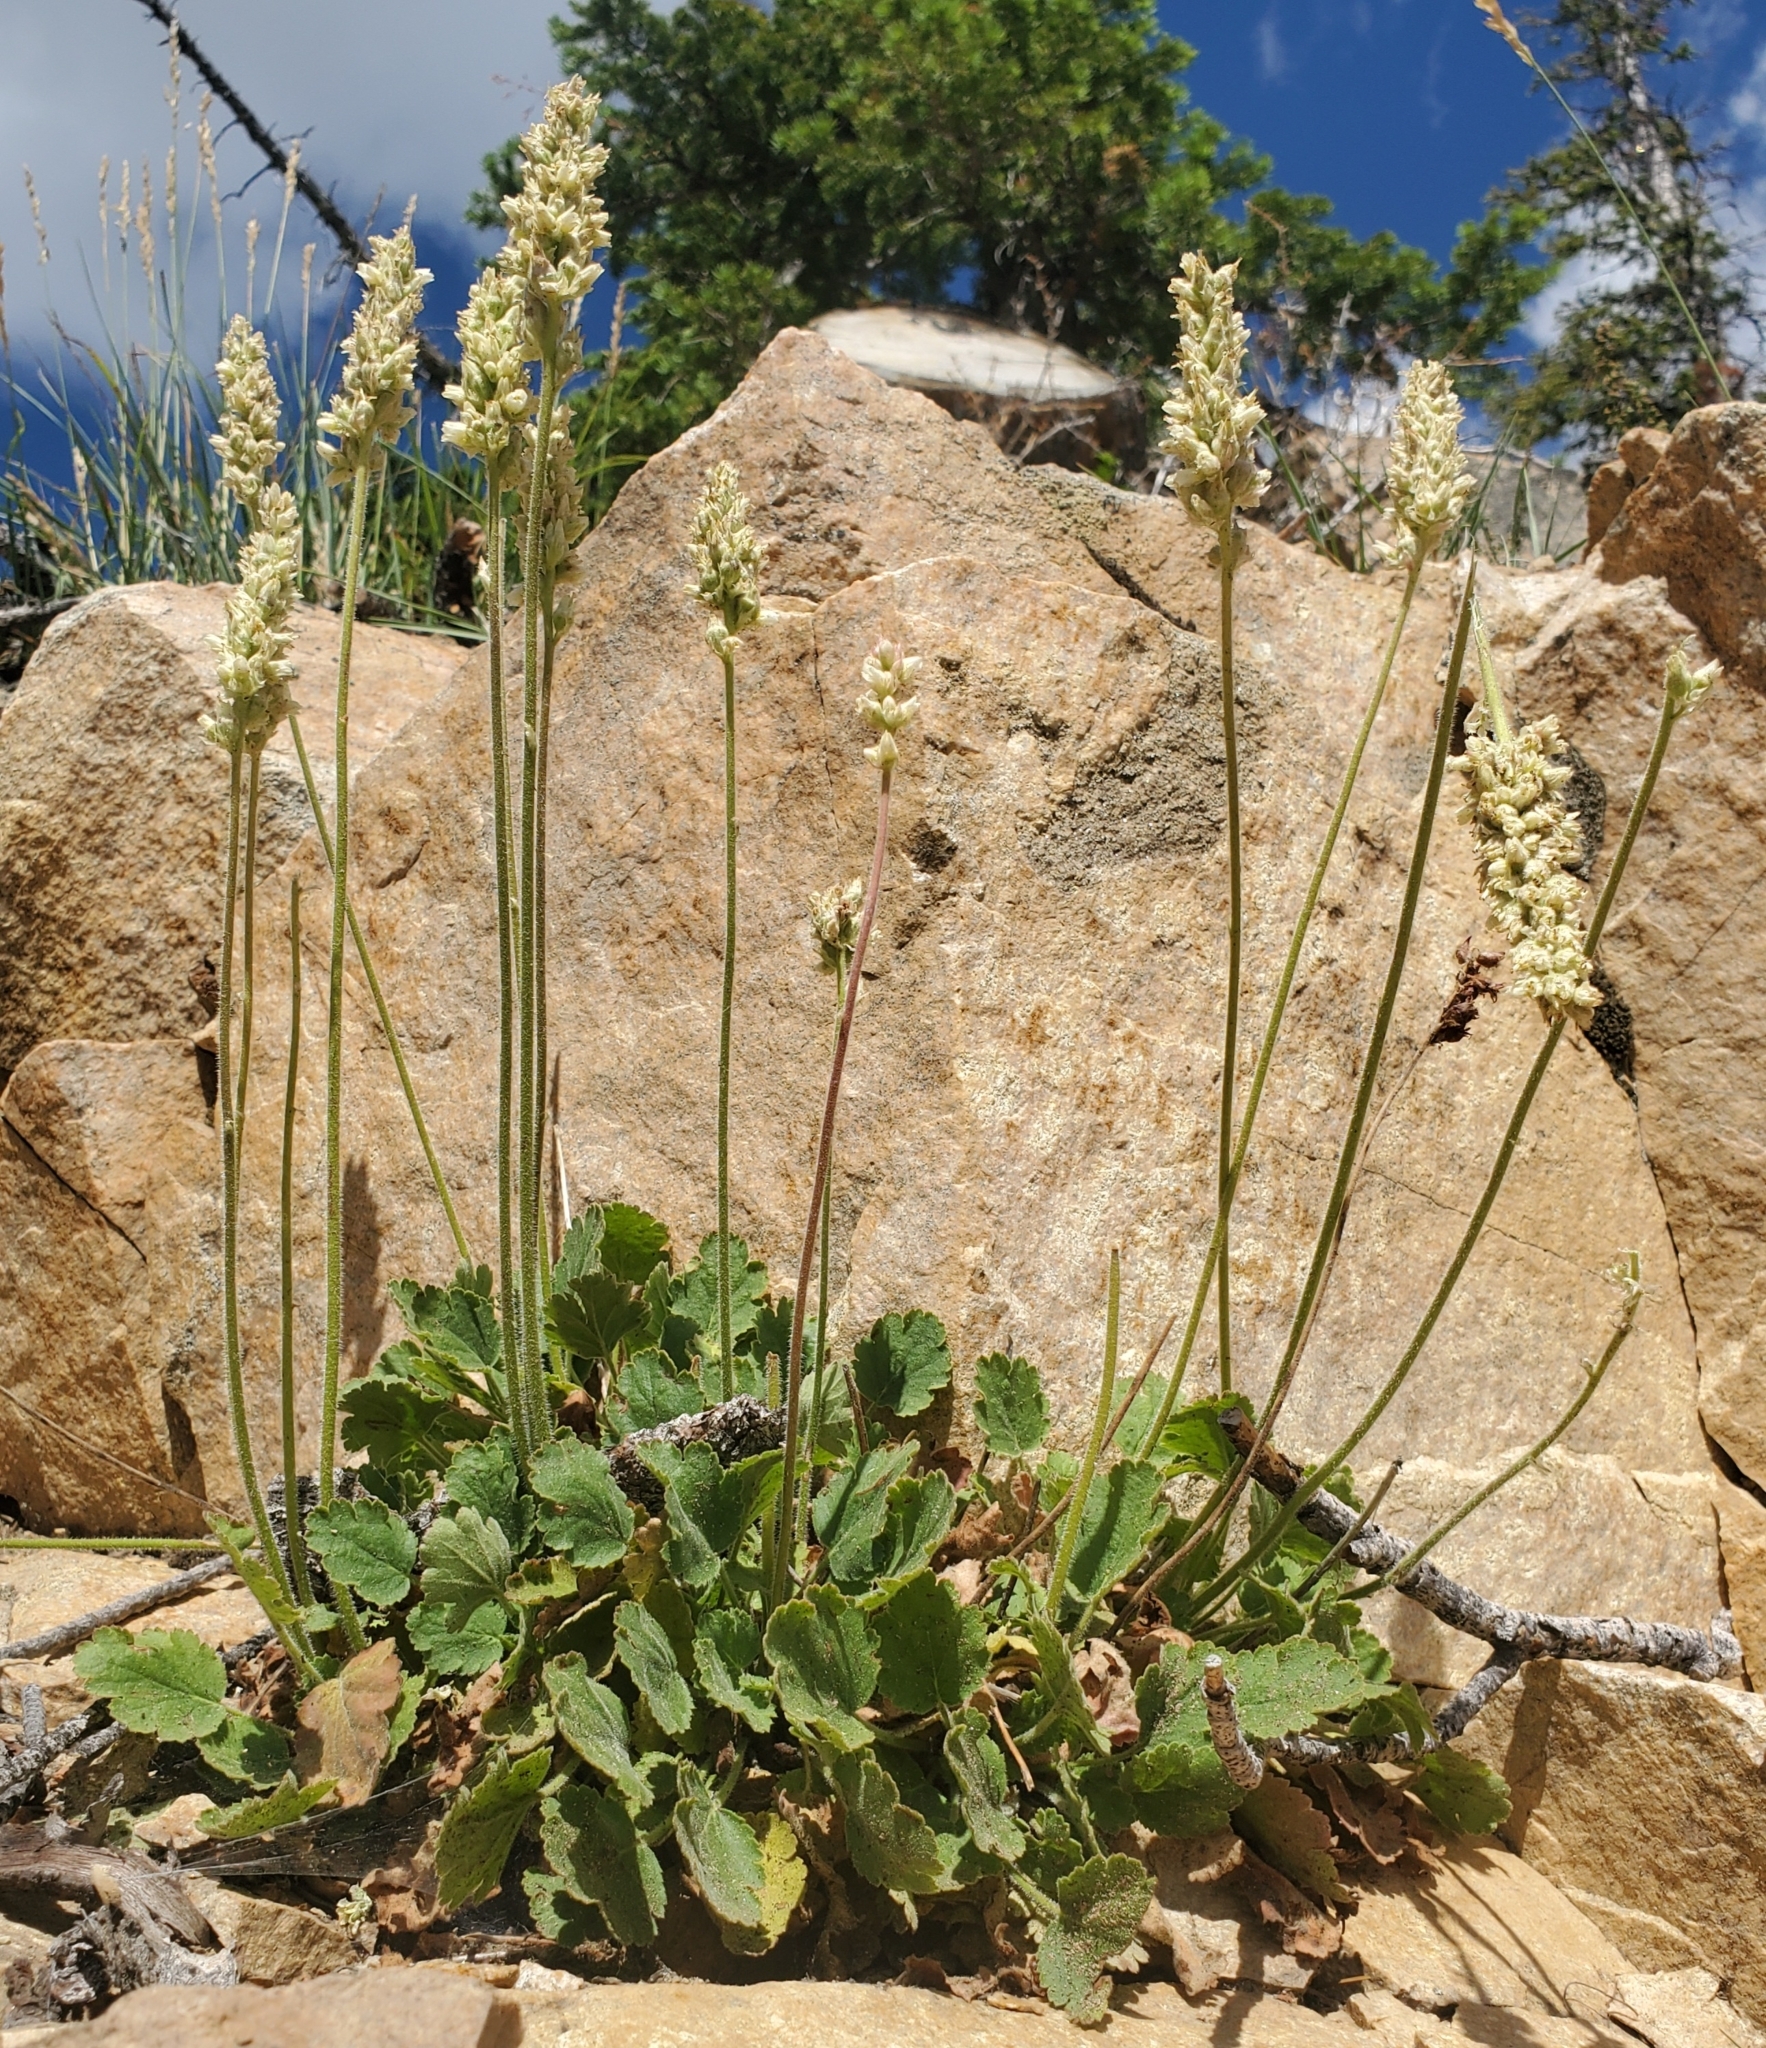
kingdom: Plantae
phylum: Tracheophyta
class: Magnoliopsida
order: Saxifragales
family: Saxifragaceae
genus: Heuchera
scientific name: Heuchera cylindrica
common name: Mat alumroot
